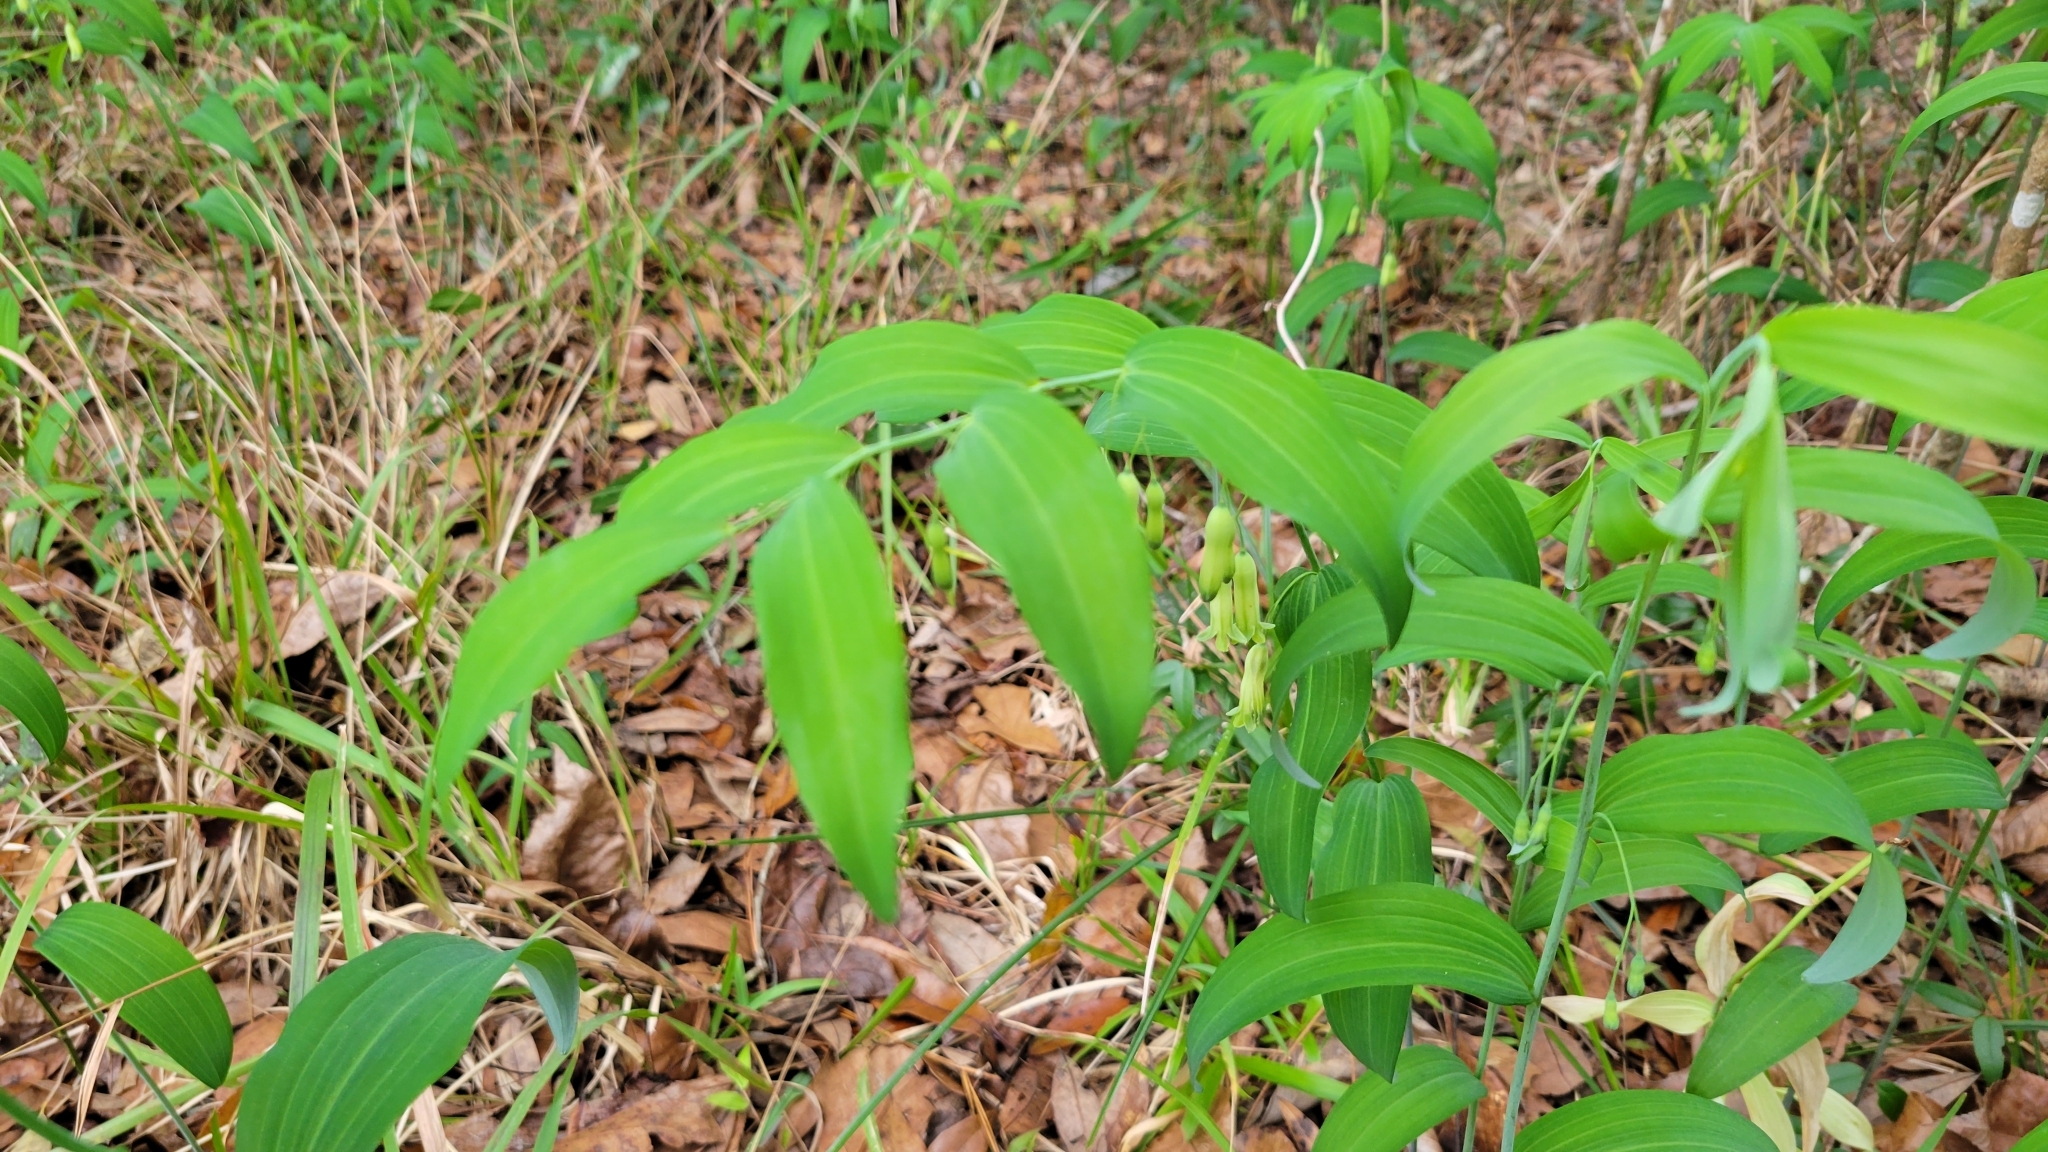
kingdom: Plantae
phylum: Tracheophyta
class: Liliopsida
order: Asparagales
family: Asparagaceae
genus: Polygonatum
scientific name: Polygonatum biflorum
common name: American solomon's-seal
